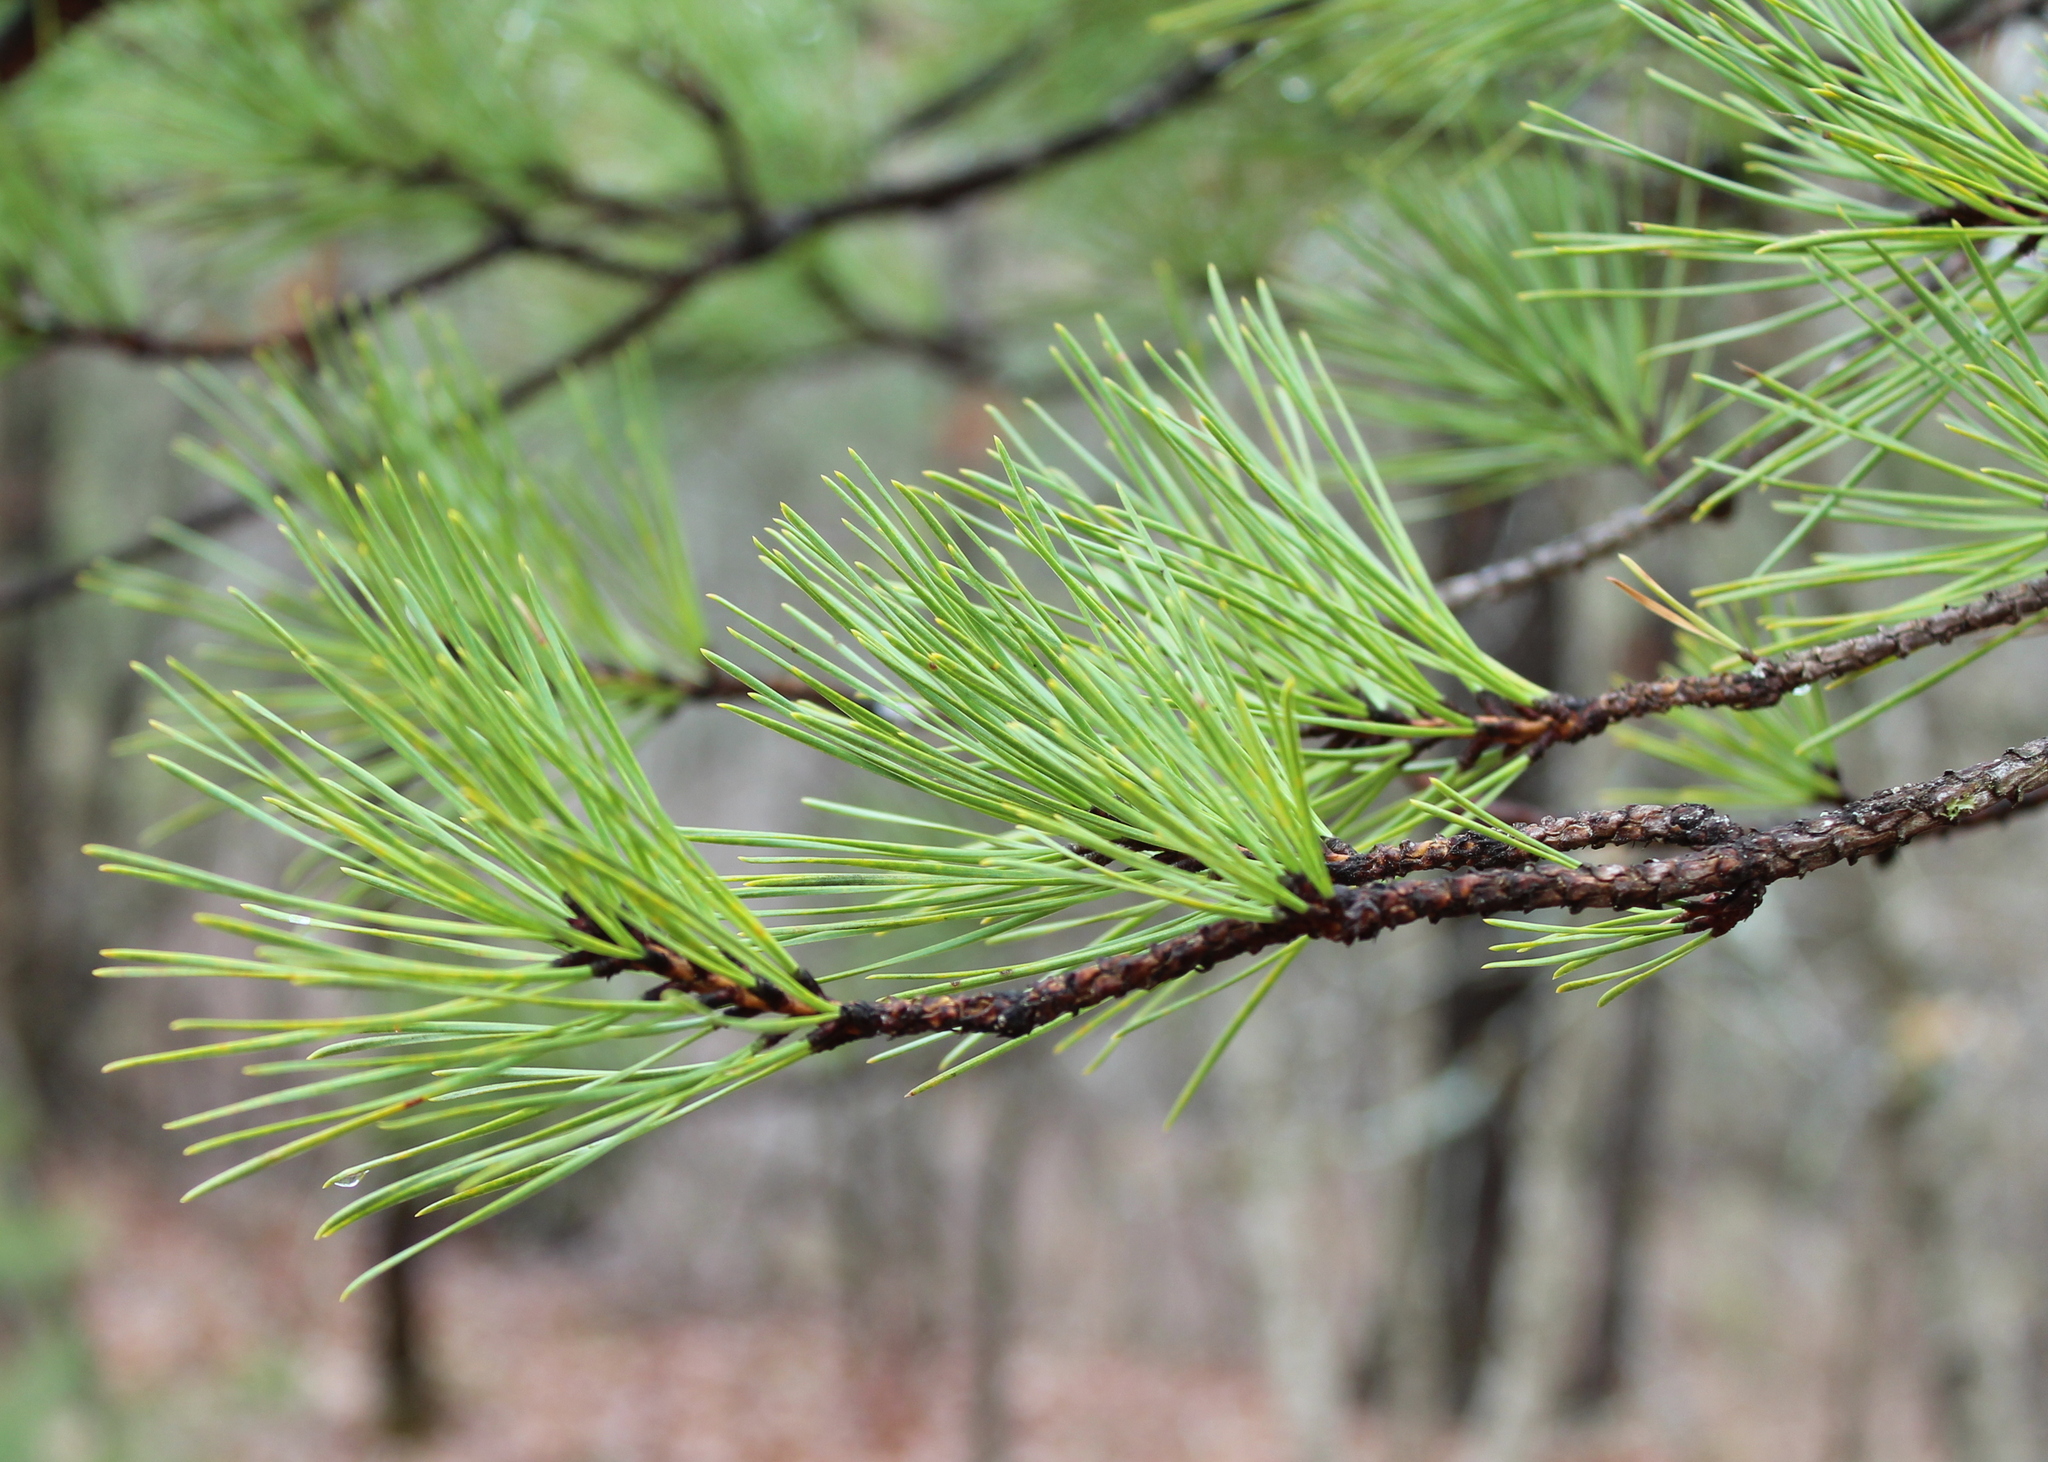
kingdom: Plantae
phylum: Tracheophyta
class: Pinopsida
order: Pinales
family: Pinaceae
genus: Pinus
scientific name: Pinus rigida
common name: Pitch pine
